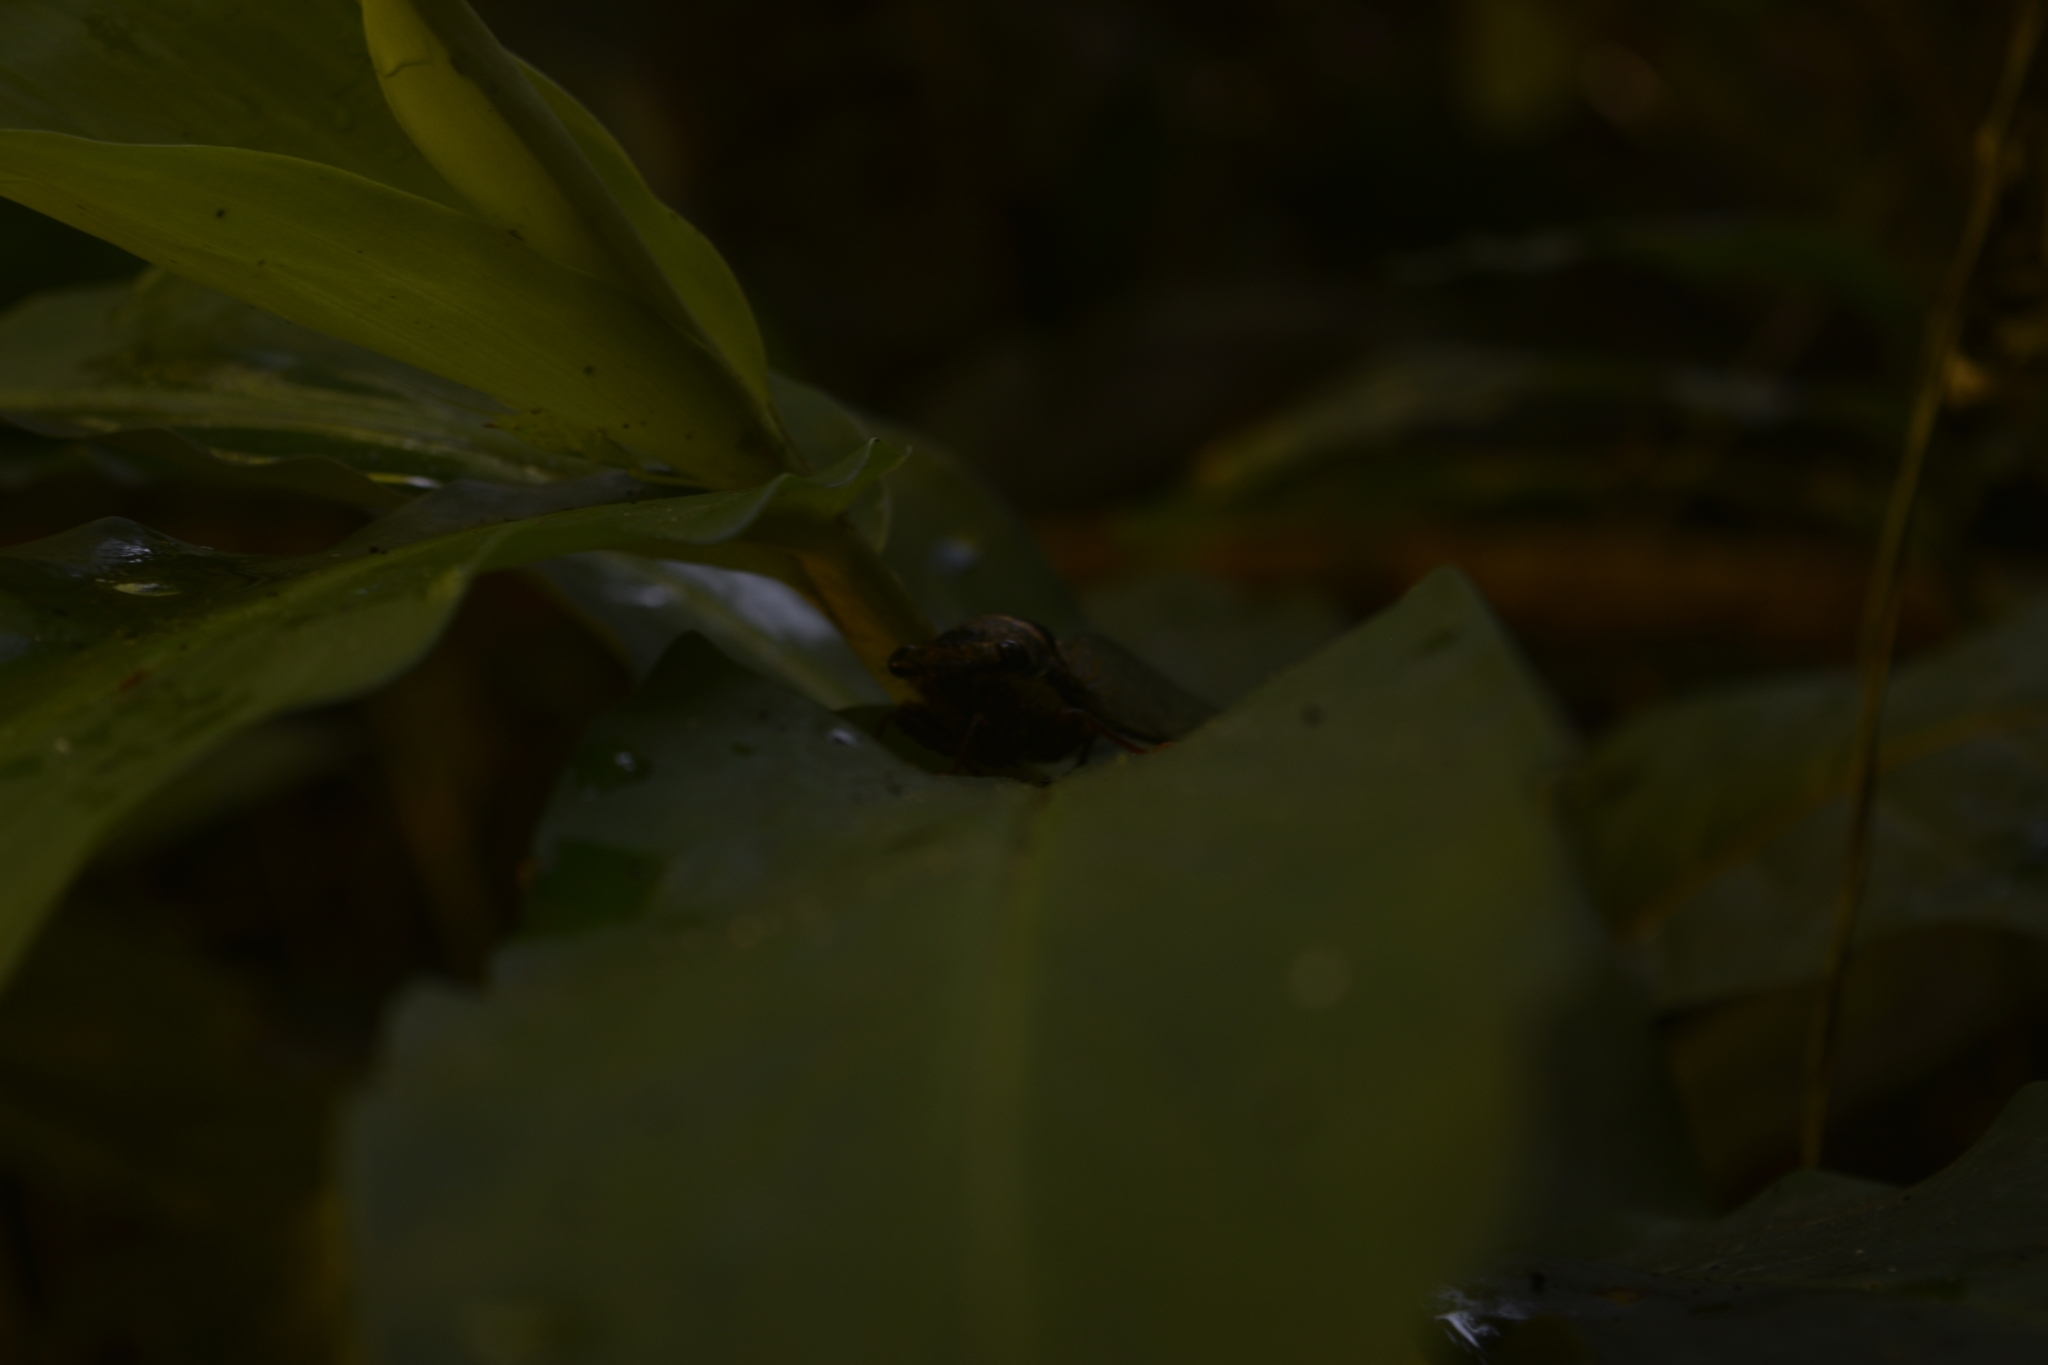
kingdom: Animalia
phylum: Arthropoda
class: Insecta
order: Hemiptera
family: Cicadidae
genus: Majeorona
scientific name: Majeorona truncata
